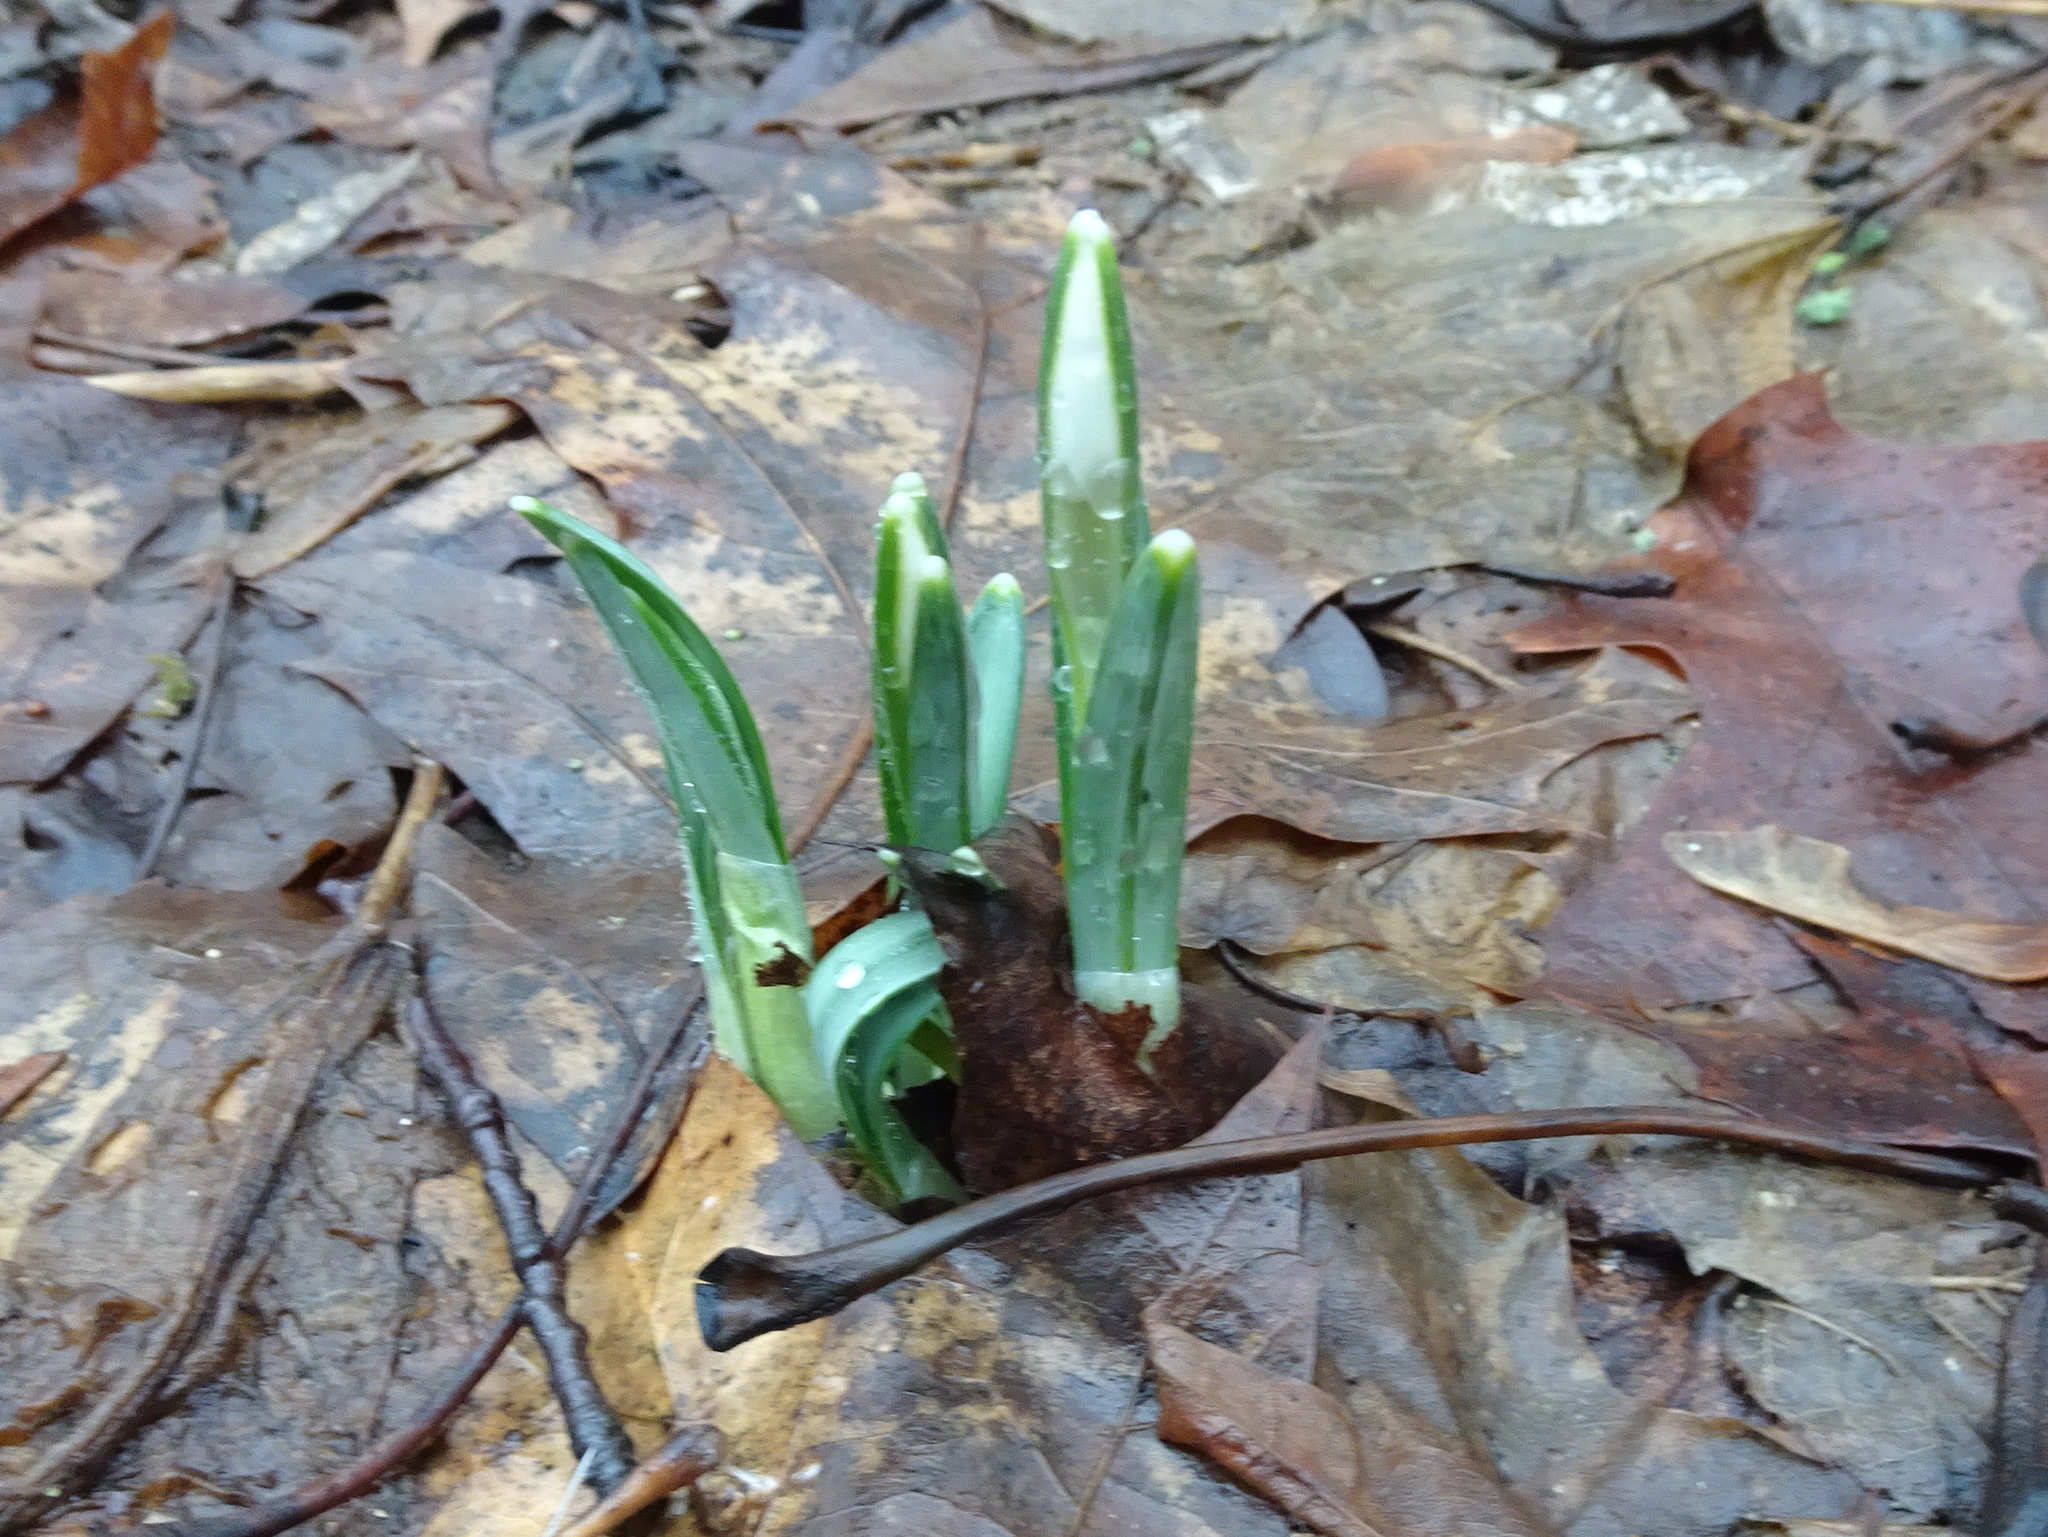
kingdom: Plantae
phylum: Tracheophyta
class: Liliopsida
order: Asparagales
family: Amaryllidaceae
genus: Galanthus
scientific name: Galanthus nivalis
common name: Snowdrop
